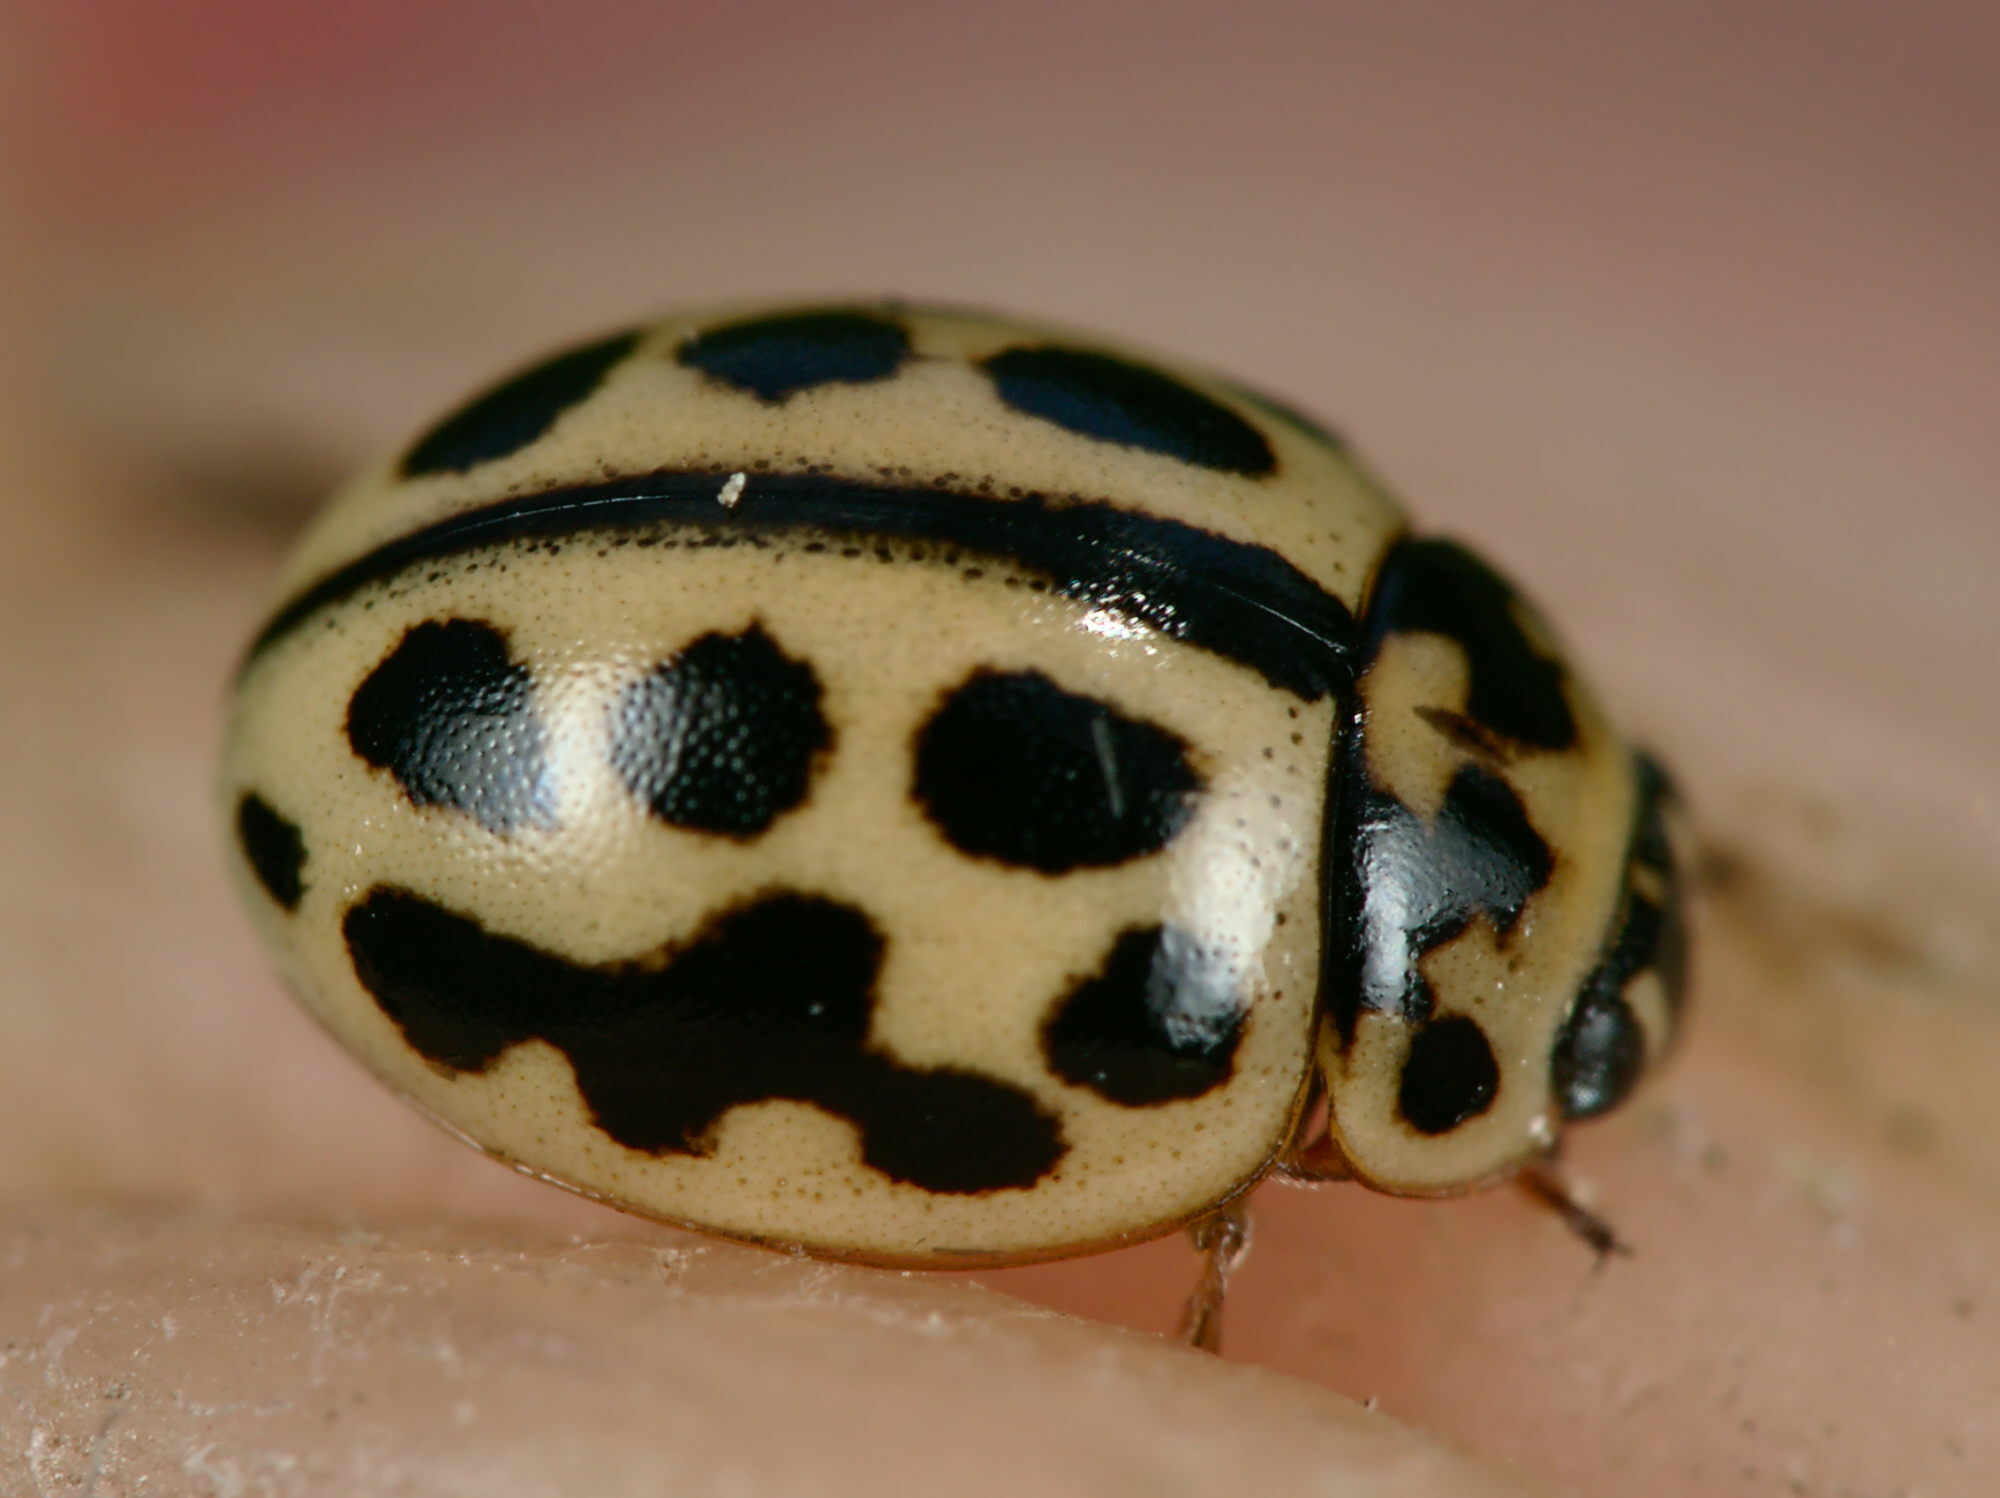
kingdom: Animalia
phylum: Arthropoda
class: Insecta
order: Coleoptera
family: Coccinellidae
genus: Tytthaspis
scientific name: Tytthaspis sedecimpunctata
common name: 16-spot ladybird
